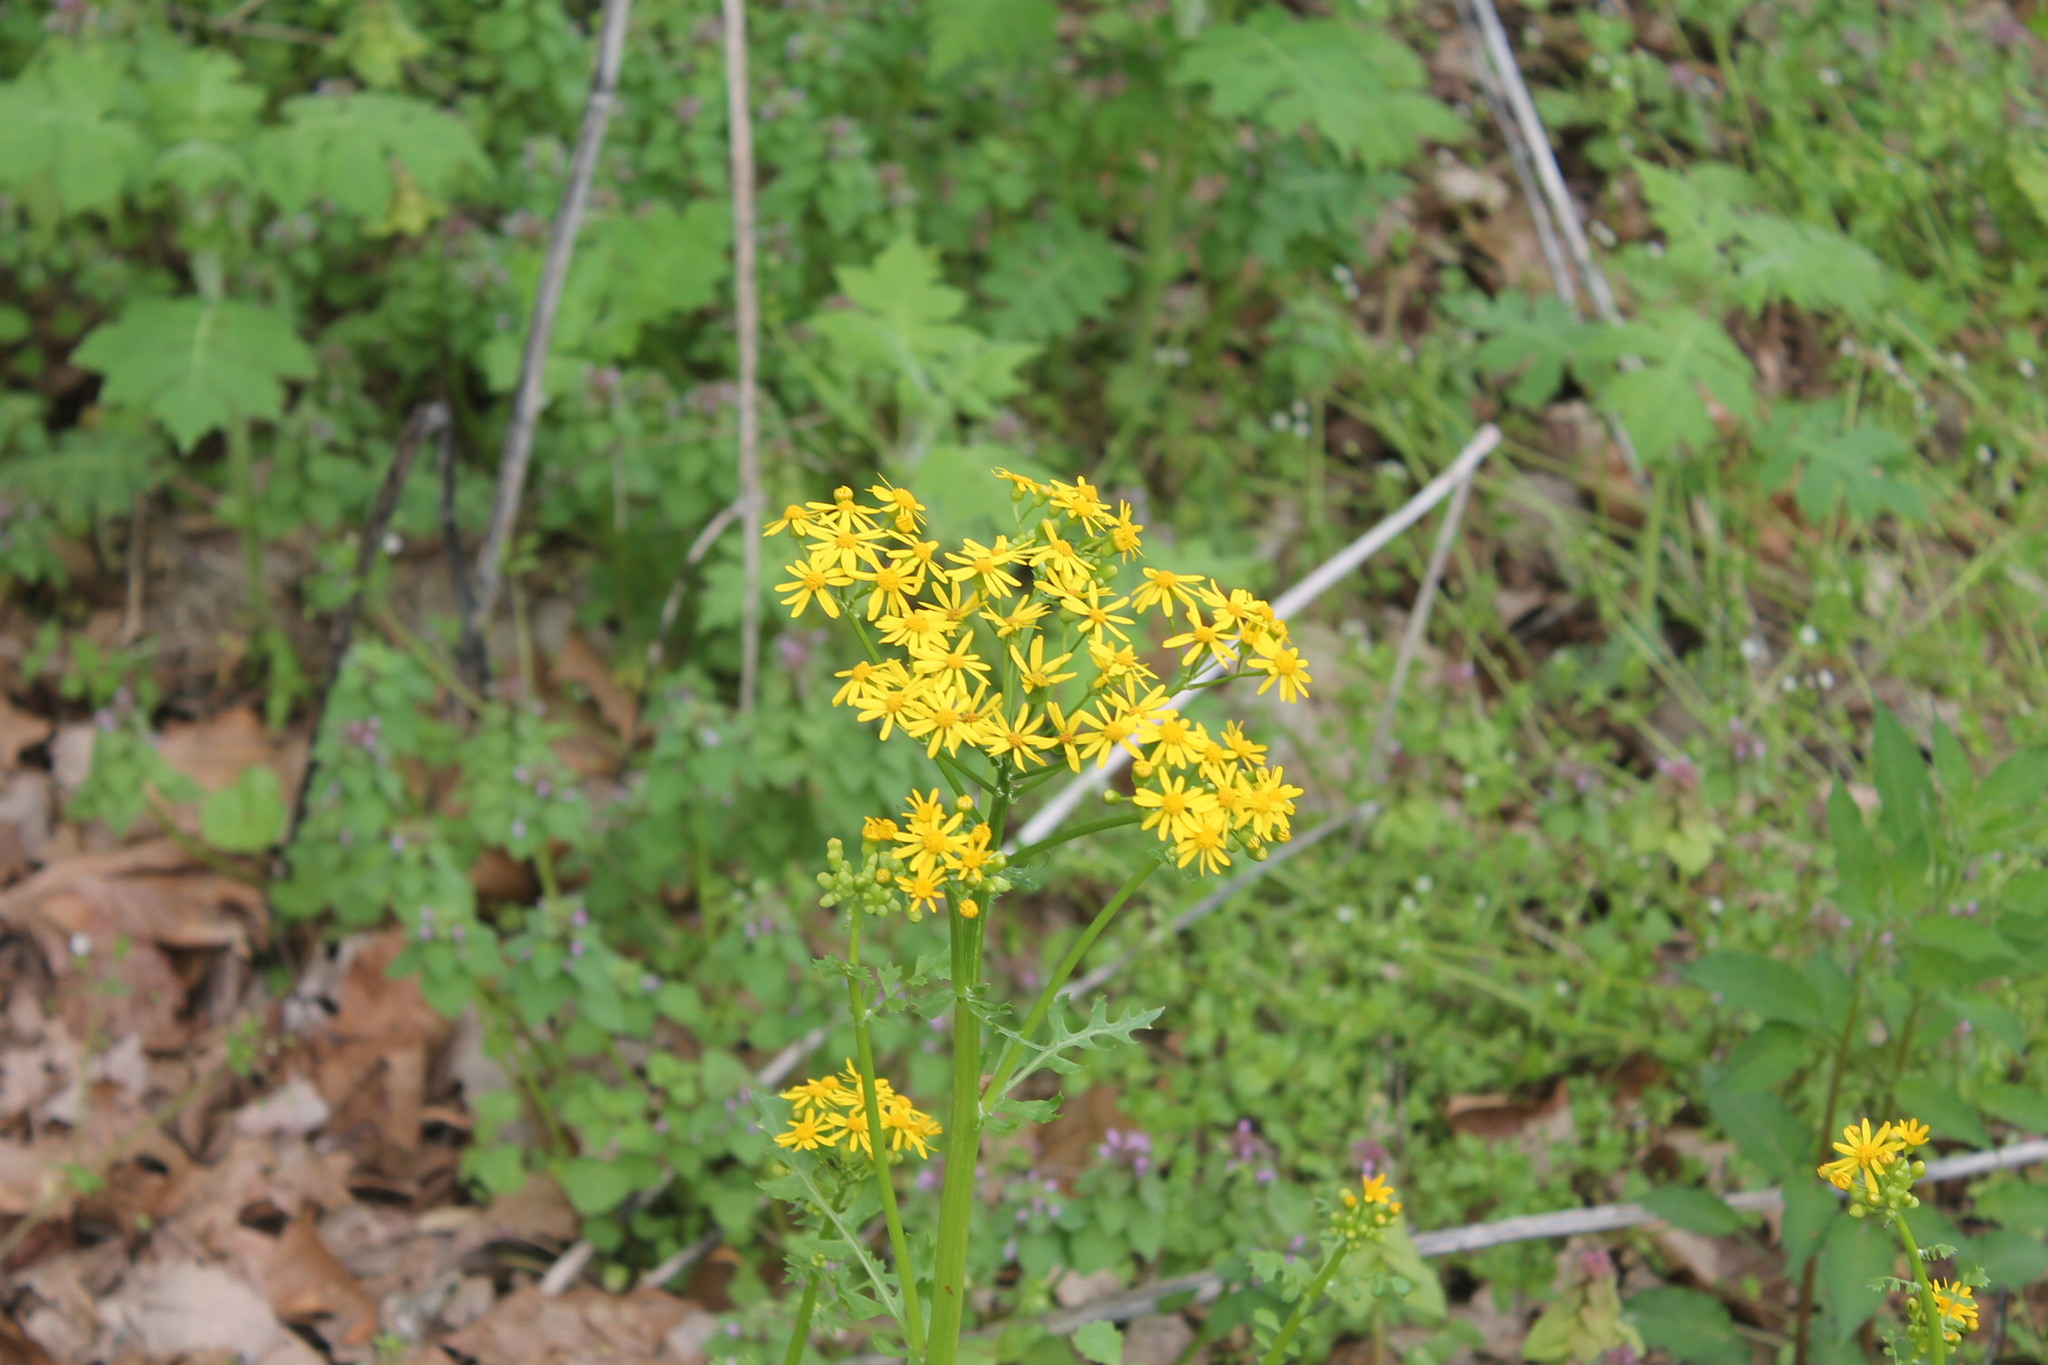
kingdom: Plantae
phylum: Tracheophyta
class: Magnoliopsida
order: Asterales
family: Asteraceae
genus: Packera
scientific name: Packera glabella
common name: Butterweed
